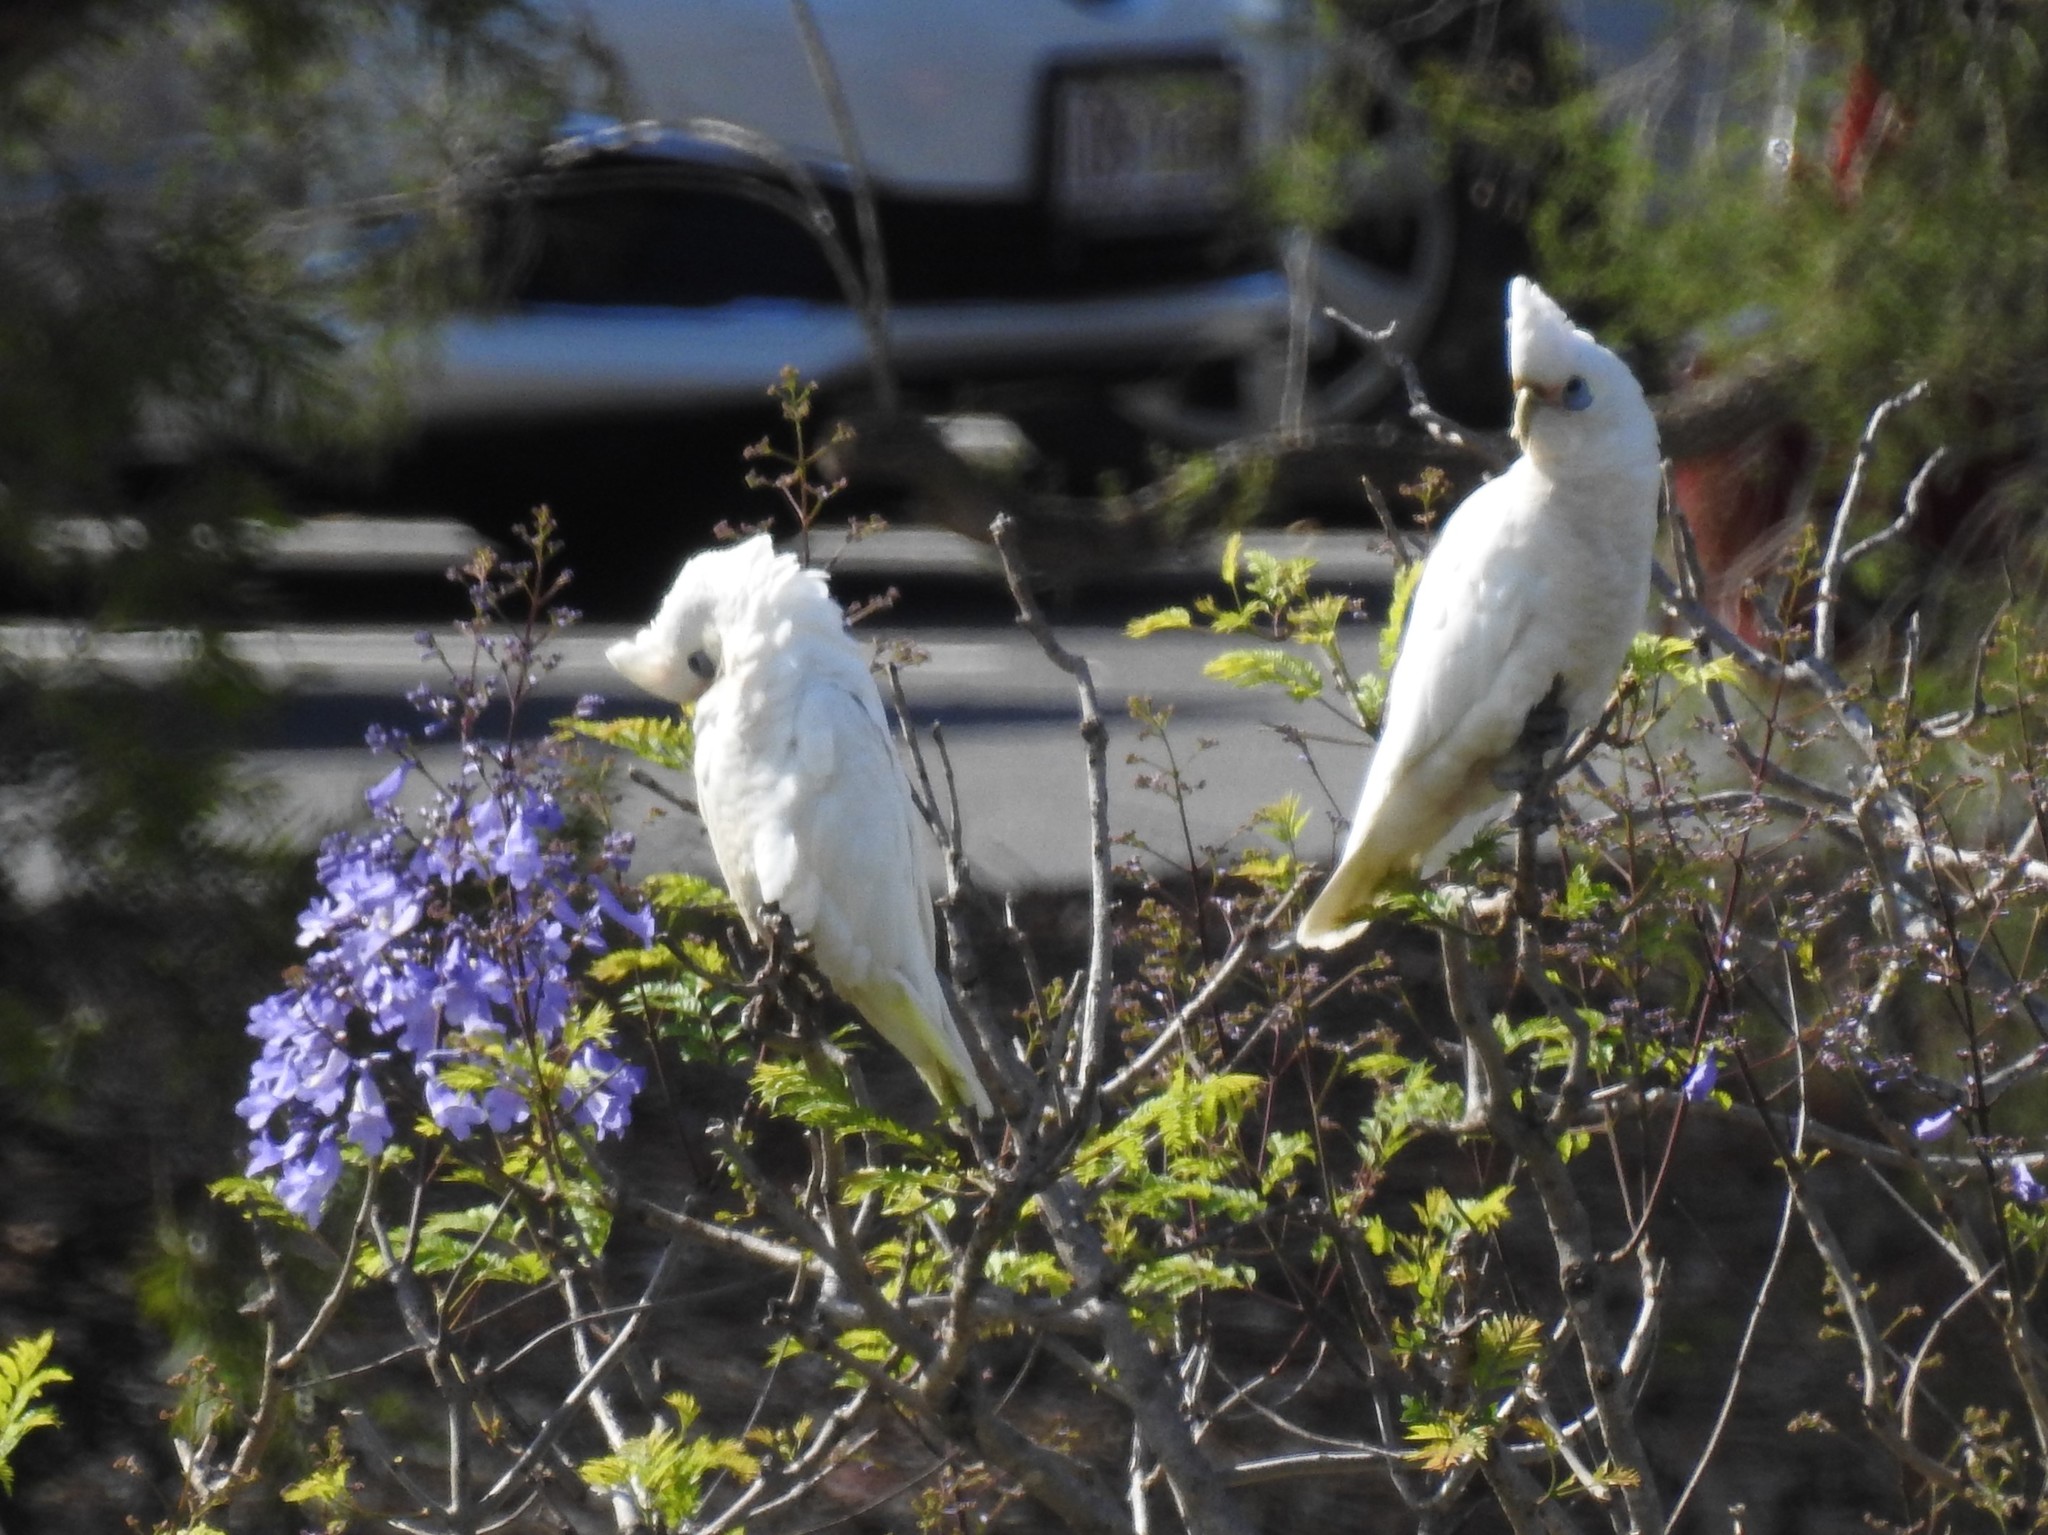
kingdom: Animalia
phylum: Chordata
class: Aves
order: Psittaciformes
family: Psittacidae
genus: Cacatua
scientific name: Cacatua sanguinea
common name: Little corella
